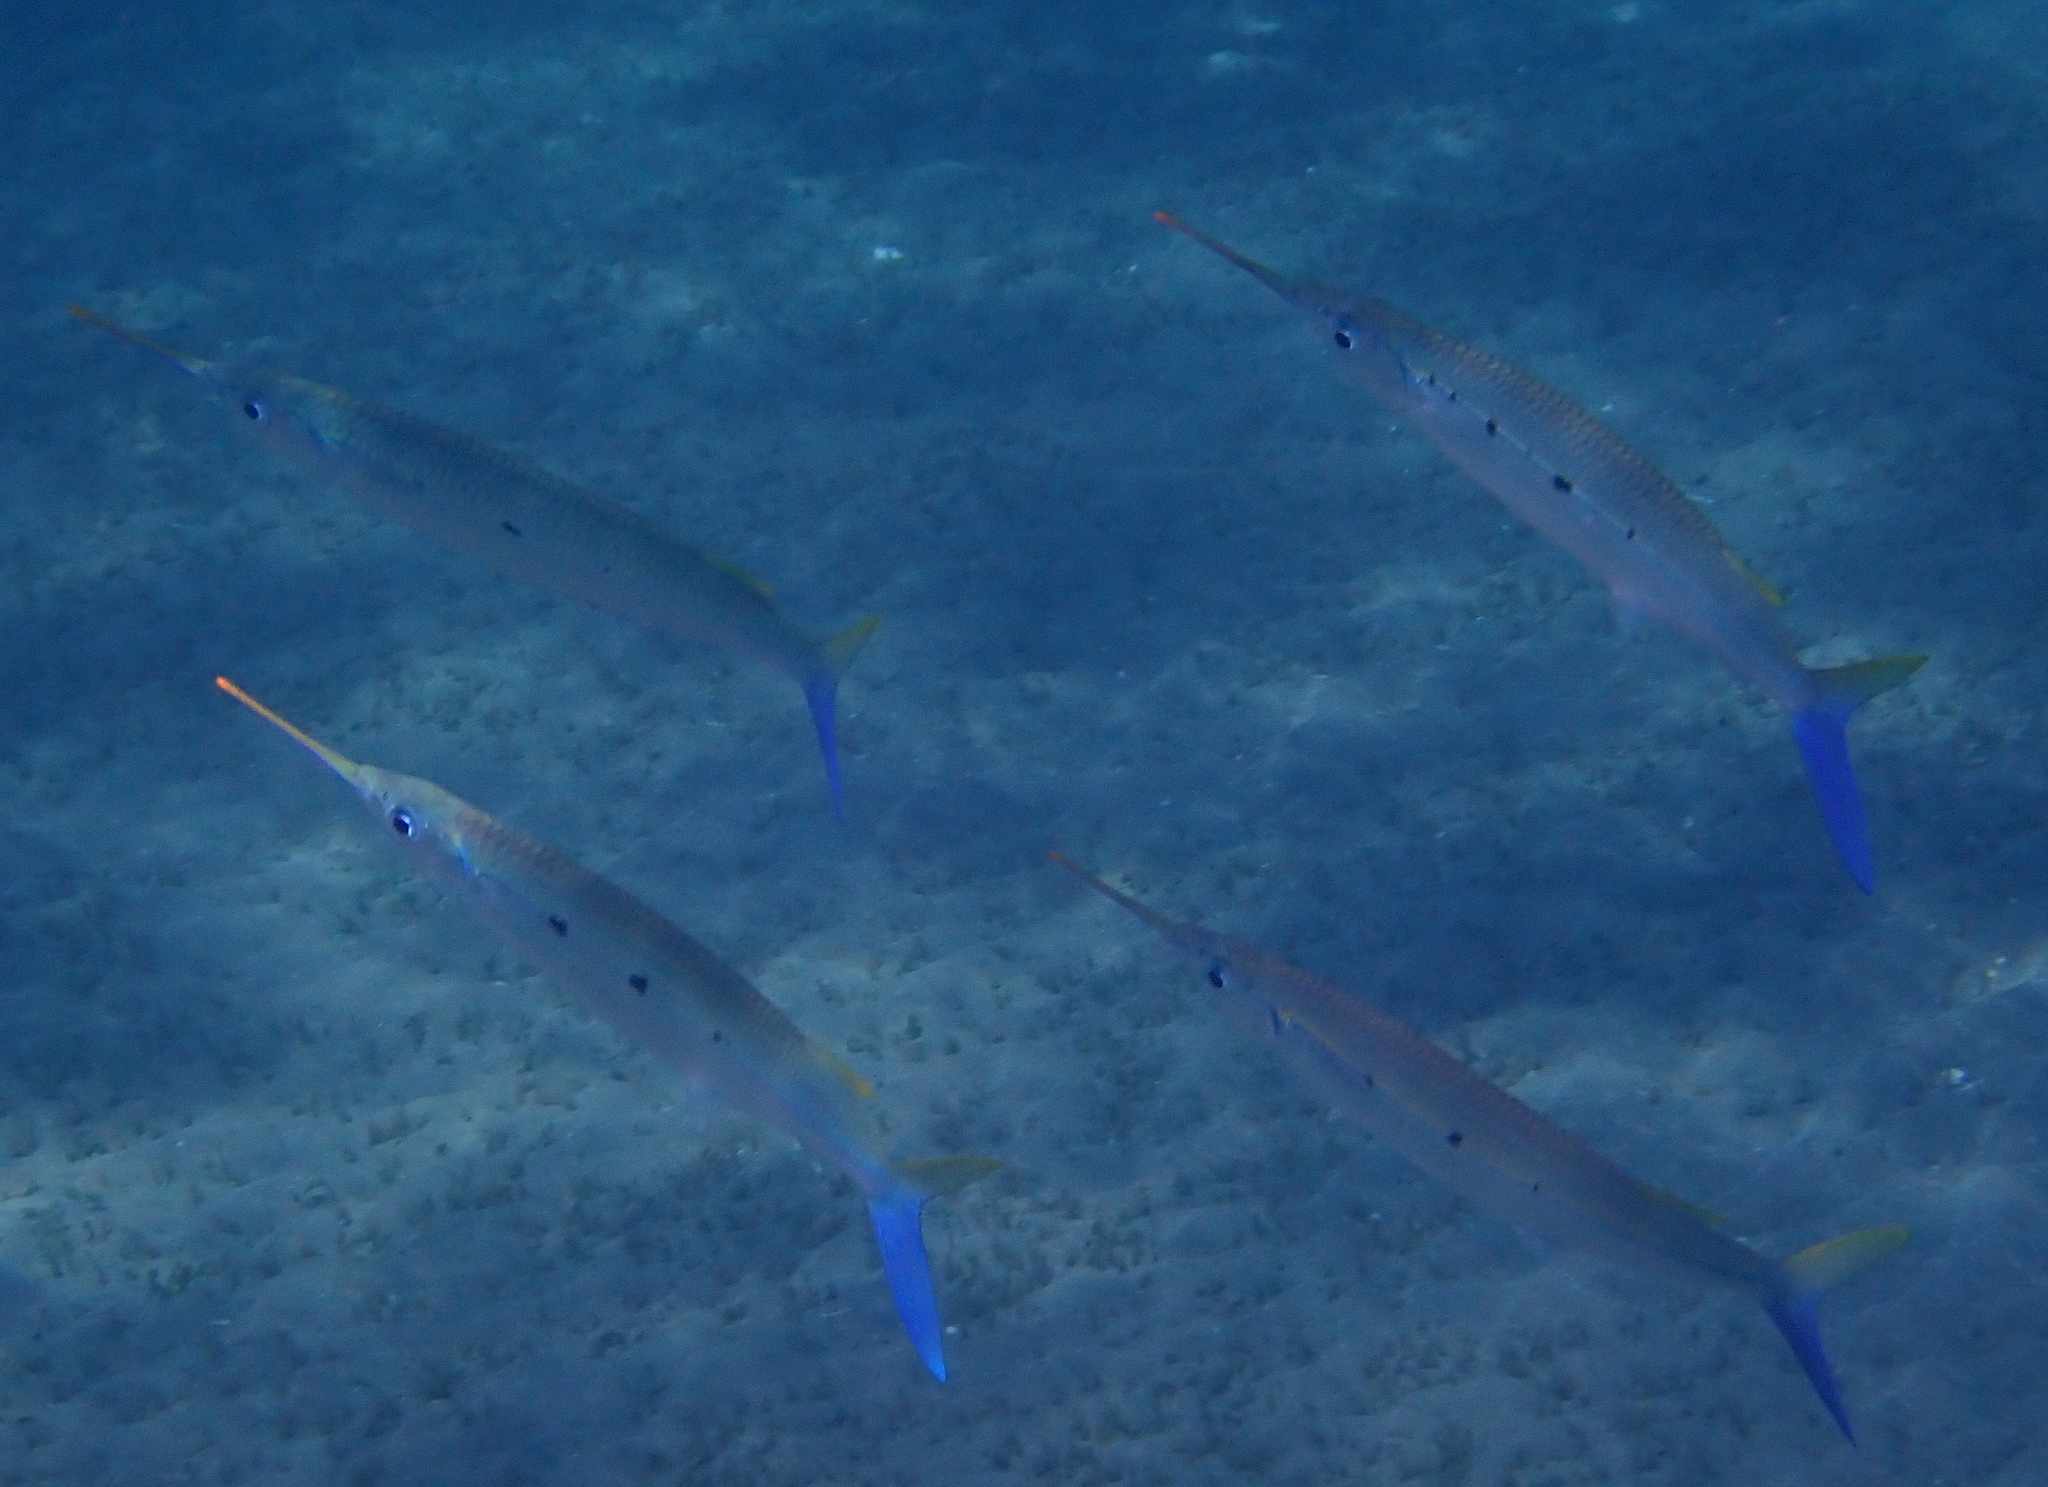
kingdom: Animalia
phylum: Chordata
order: Beloniformes
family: Hemiramphidae
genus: Hemiramphus
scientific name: Hemiramphus far
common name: Black-barred halfbeak
